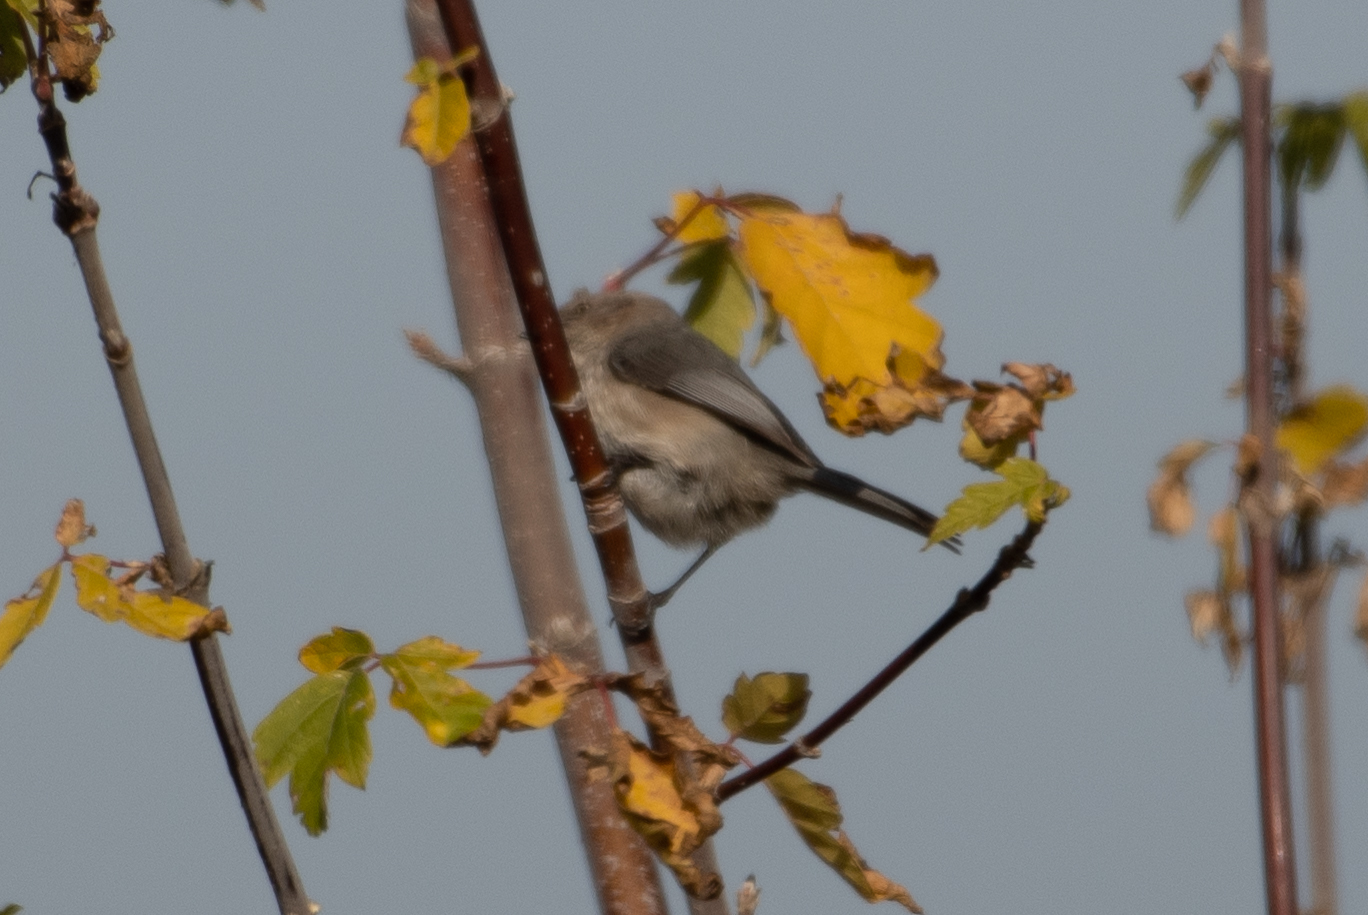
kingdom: Animalia
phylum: Chordata
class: Aves
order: Passeriformes
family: Aegithalidae
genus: Psaltriparus
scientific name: Psaltriparus minimus
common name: American bushtit
